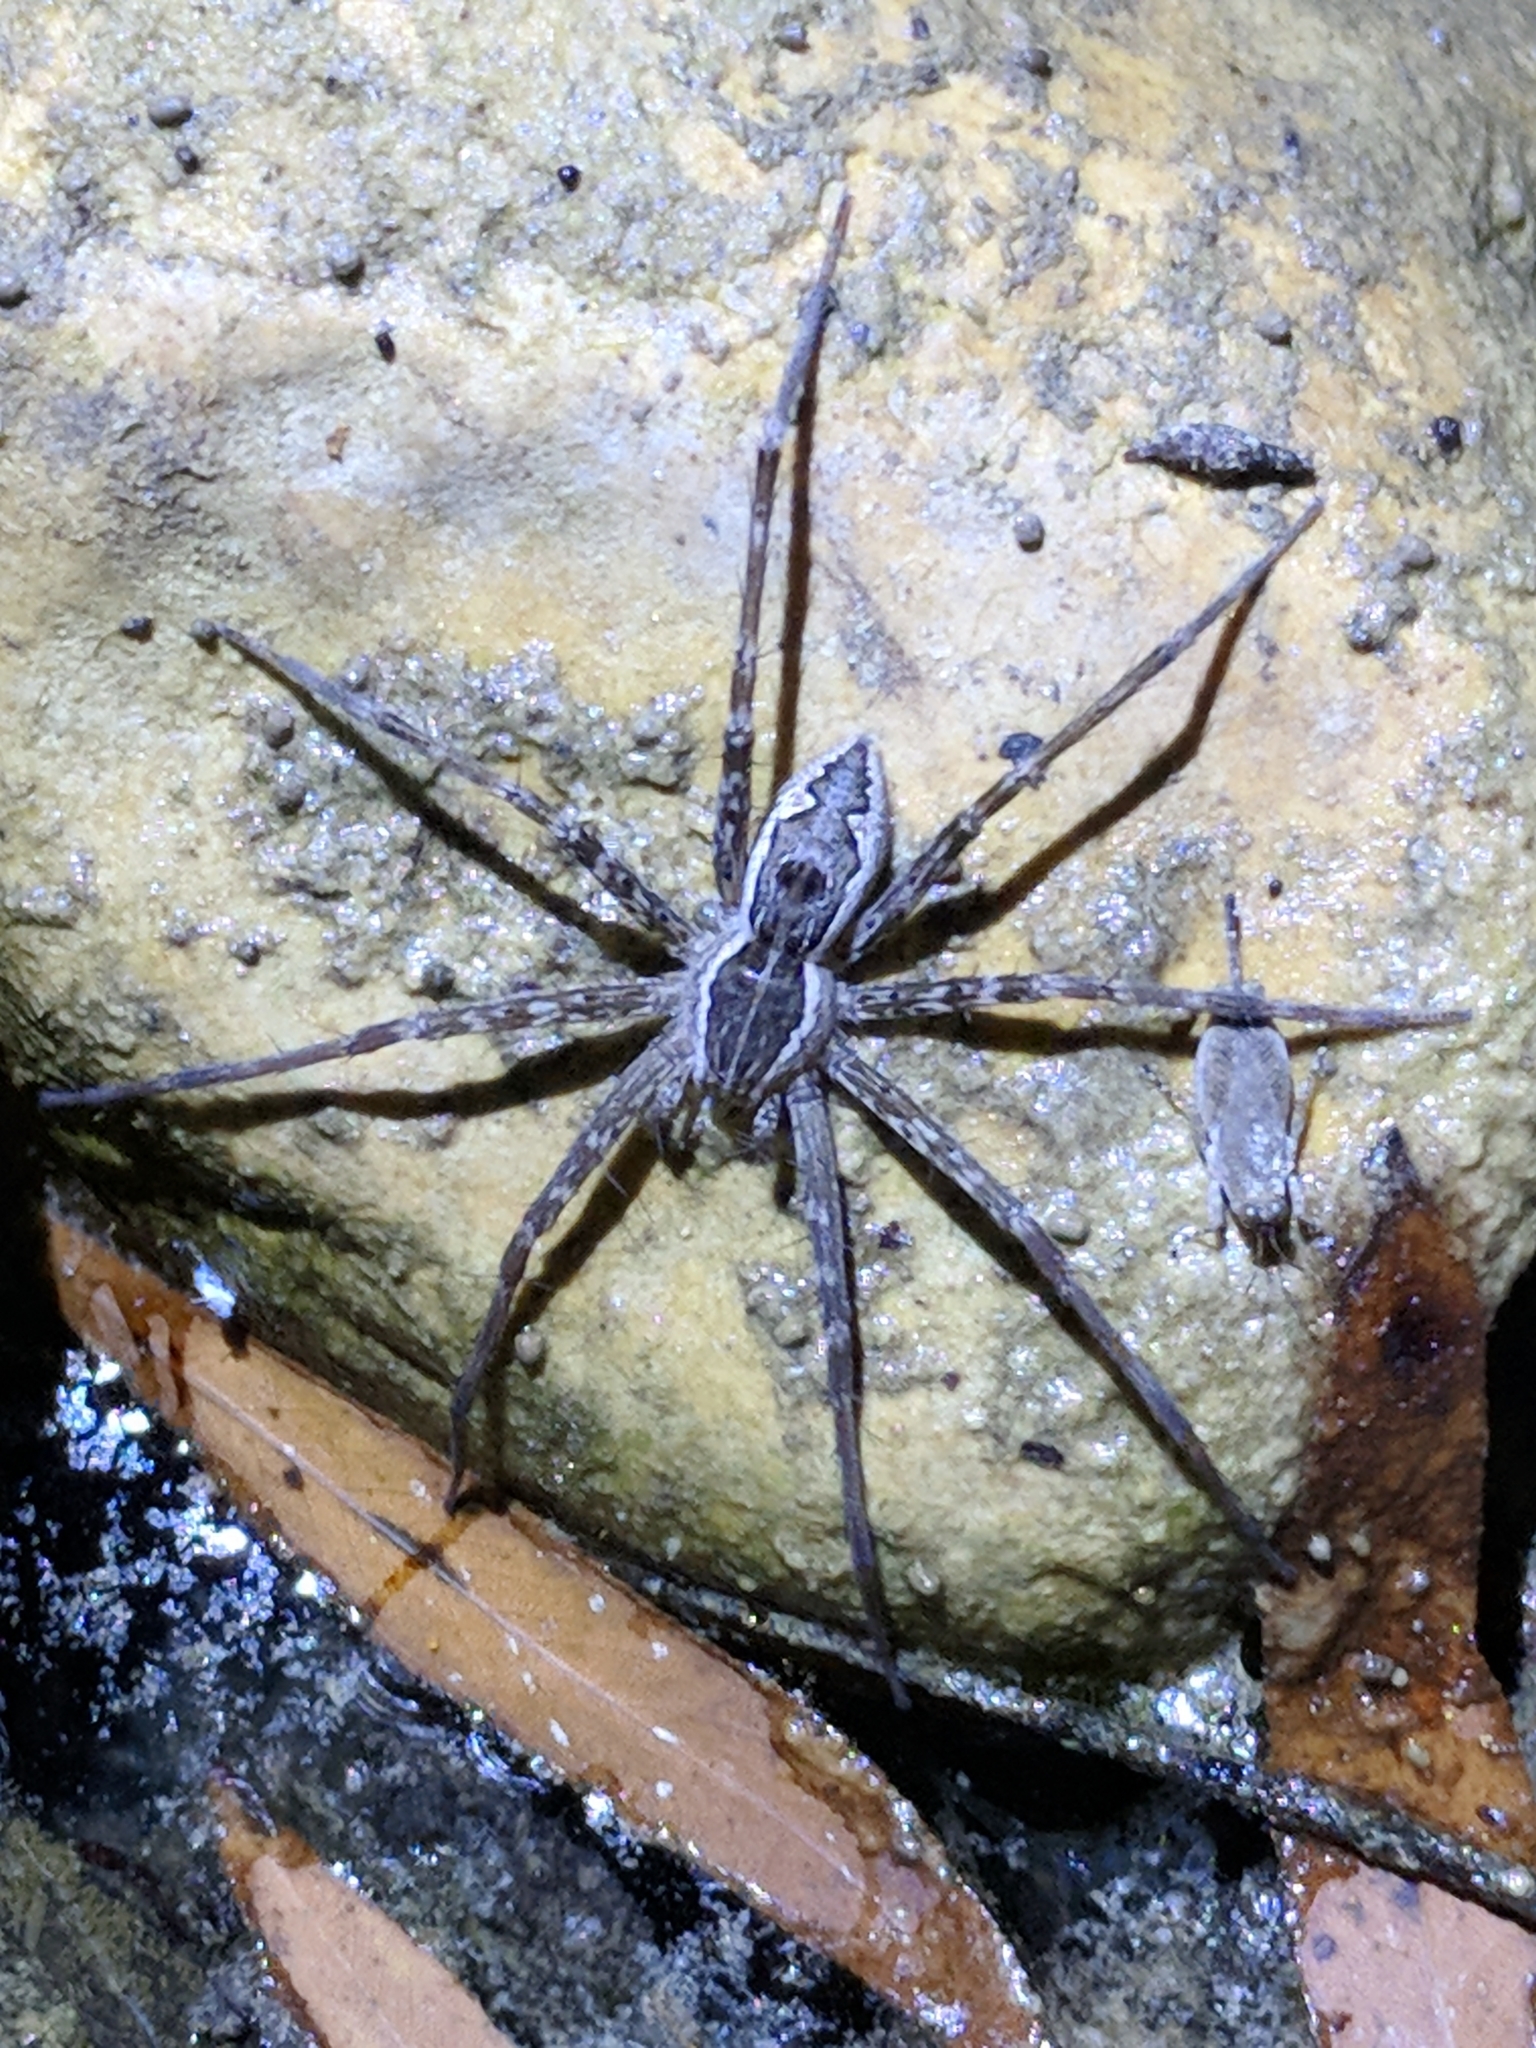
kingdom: Animalia
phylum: Arthropoda
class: Arachnida
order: Araneae
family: Pisauridae
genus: Tinus
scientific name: Tinus peregrinus
